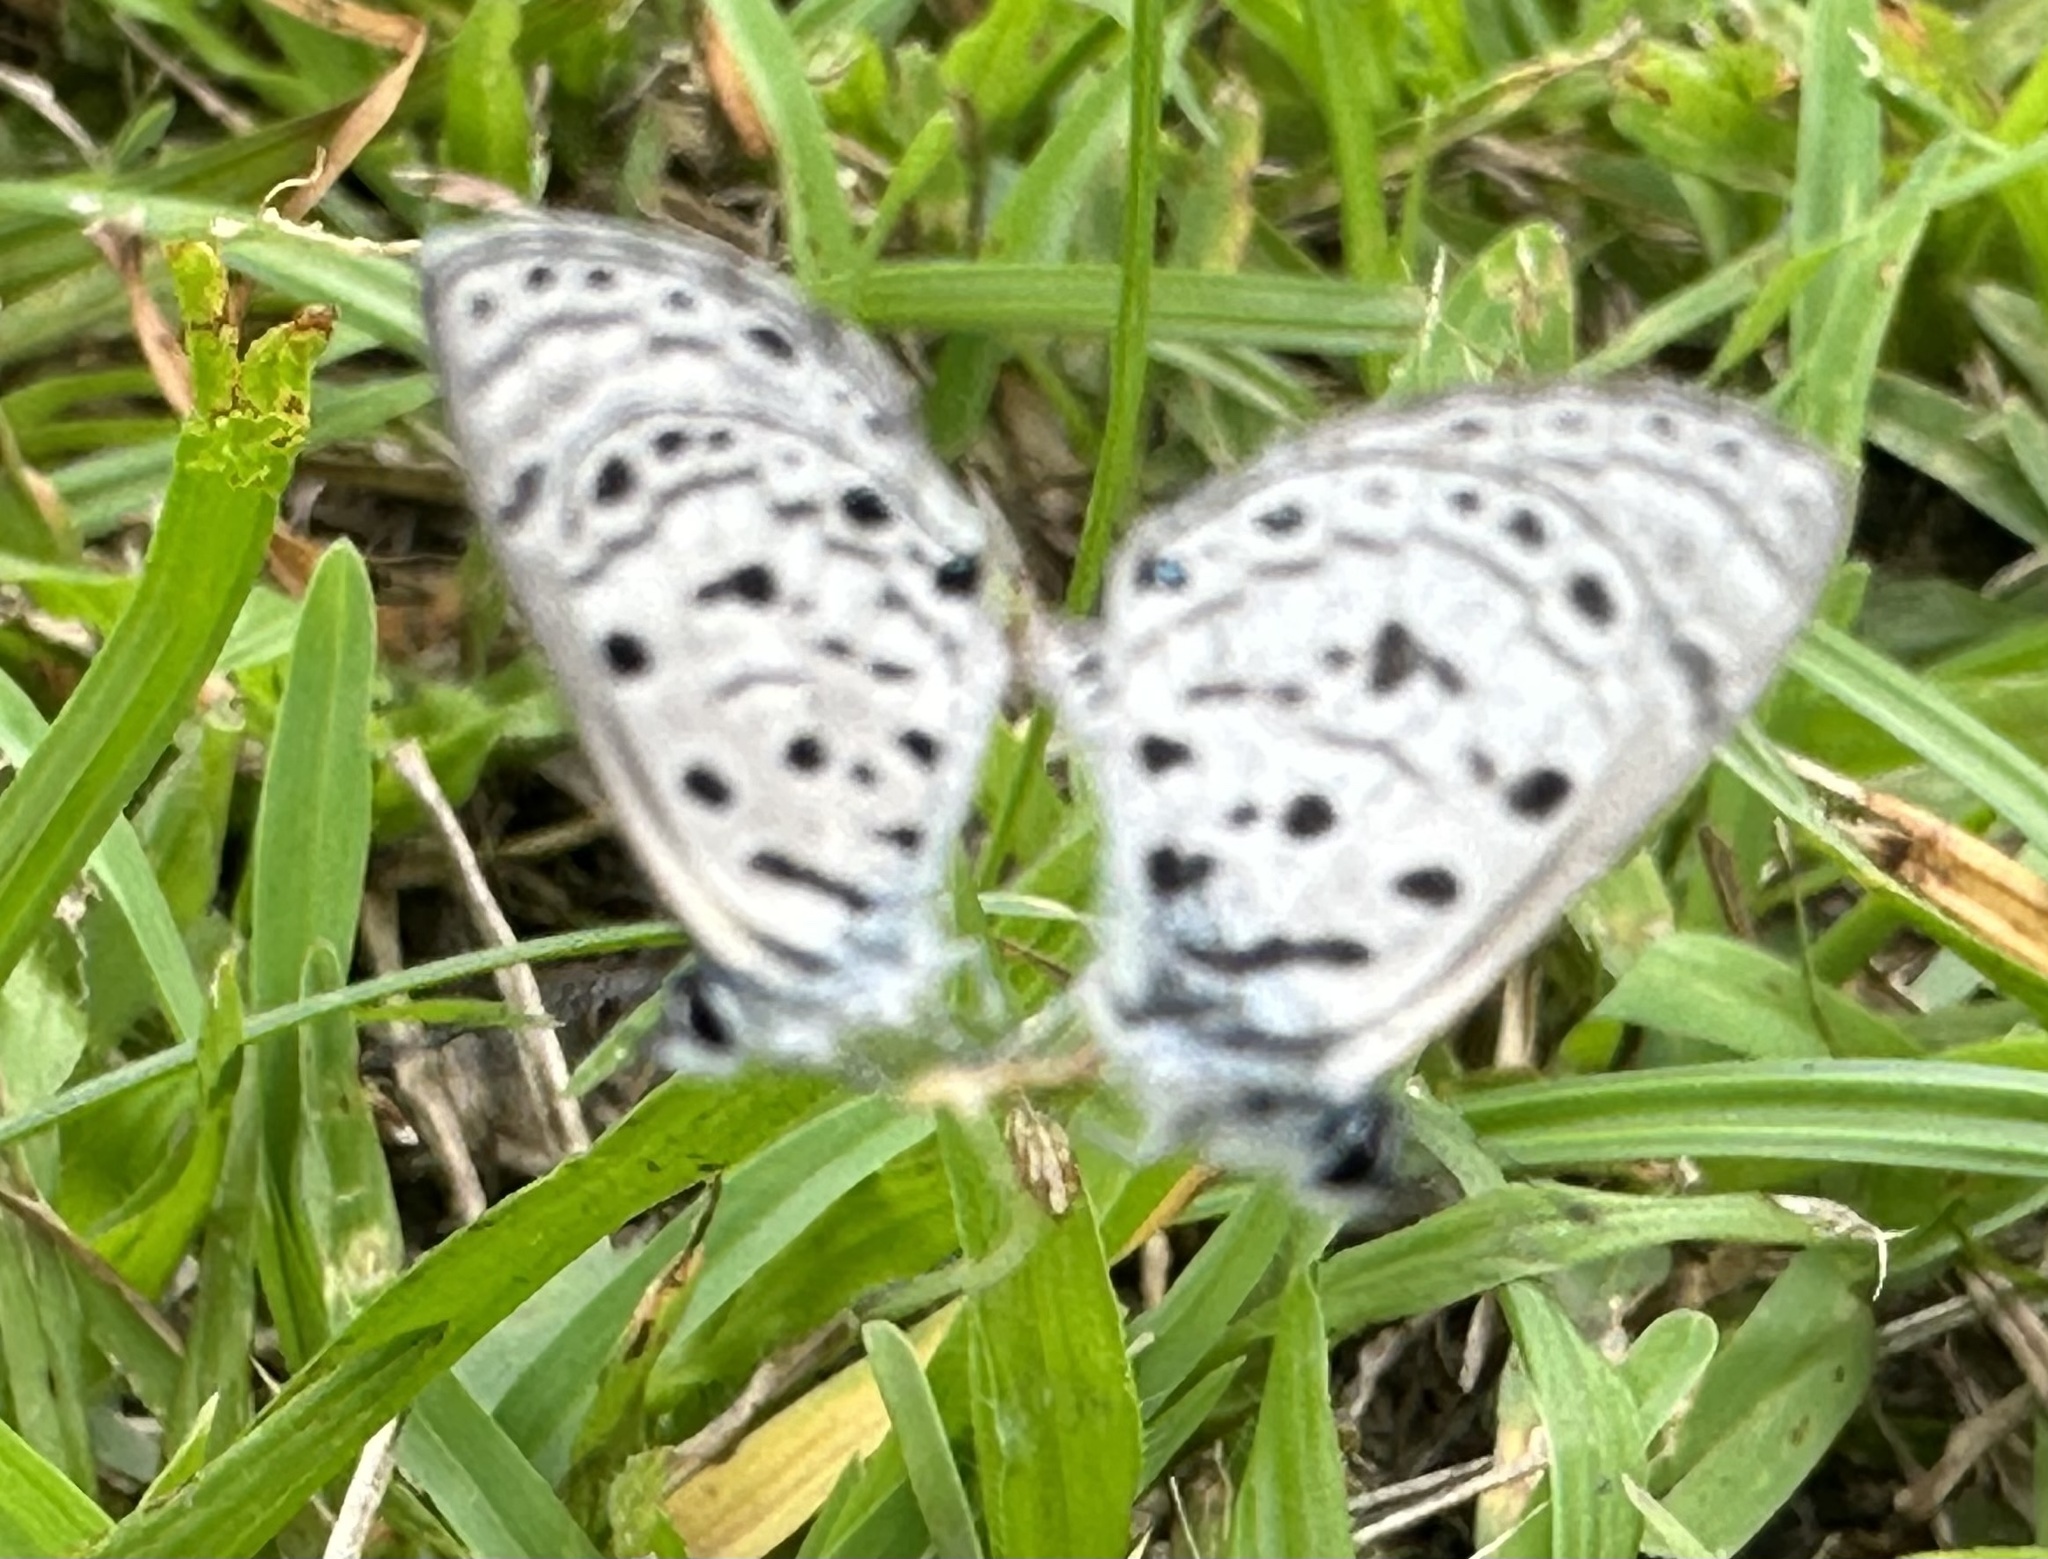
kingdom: Animalia
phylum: Arthropoda
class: Insecta
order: Lepidoptera
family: Lycaenidae
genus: Azanus
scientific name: Azanus mirza
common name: Mirza babul blue
